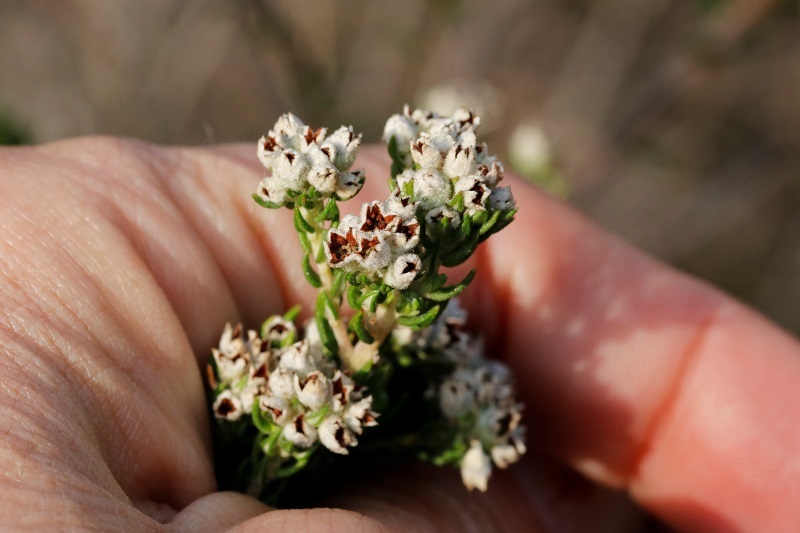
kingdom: Plantae
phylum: Tracheophyta
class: Magnoliopsida
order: Rosales
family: Rhamnaceae
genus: Phylica
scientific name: Phylica purpurea
